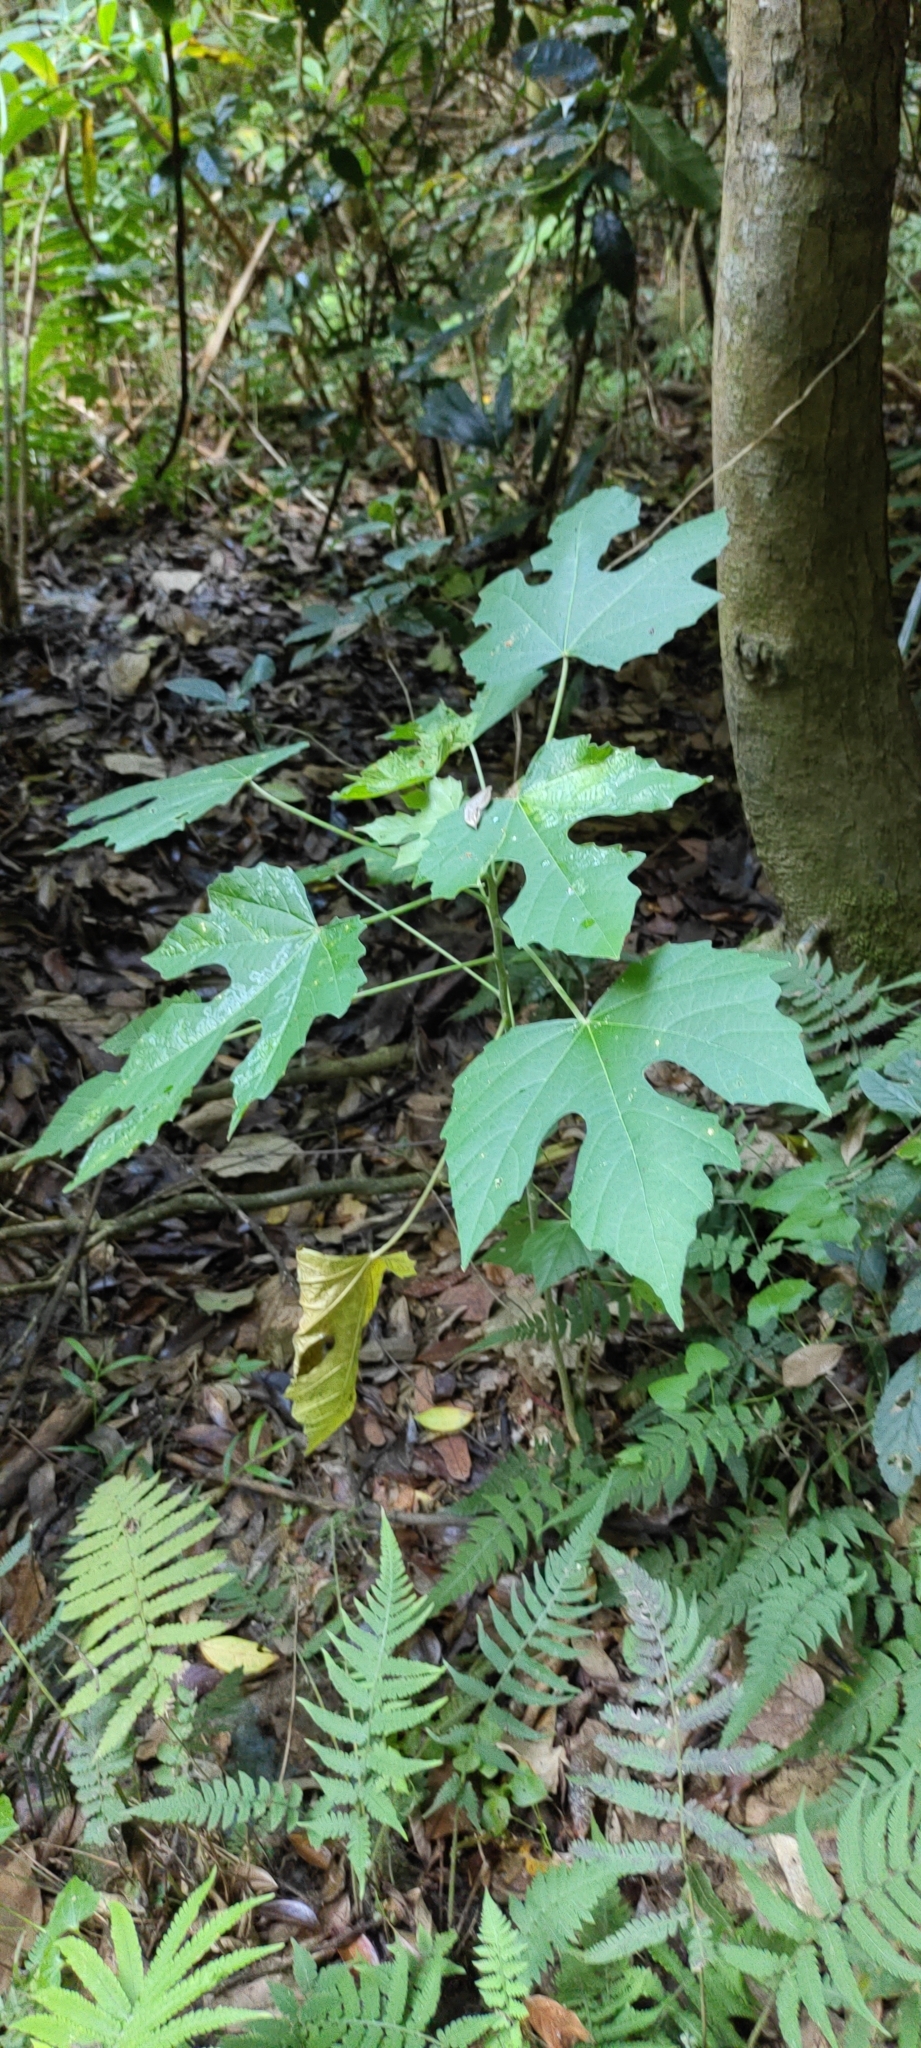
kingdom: Plantae
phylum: Tracheophyta
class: Magnoliopsida
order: Malpighiales
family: Euphorbiaceae
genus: Melanolepis
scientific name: Melanolepis multiglandulosa
